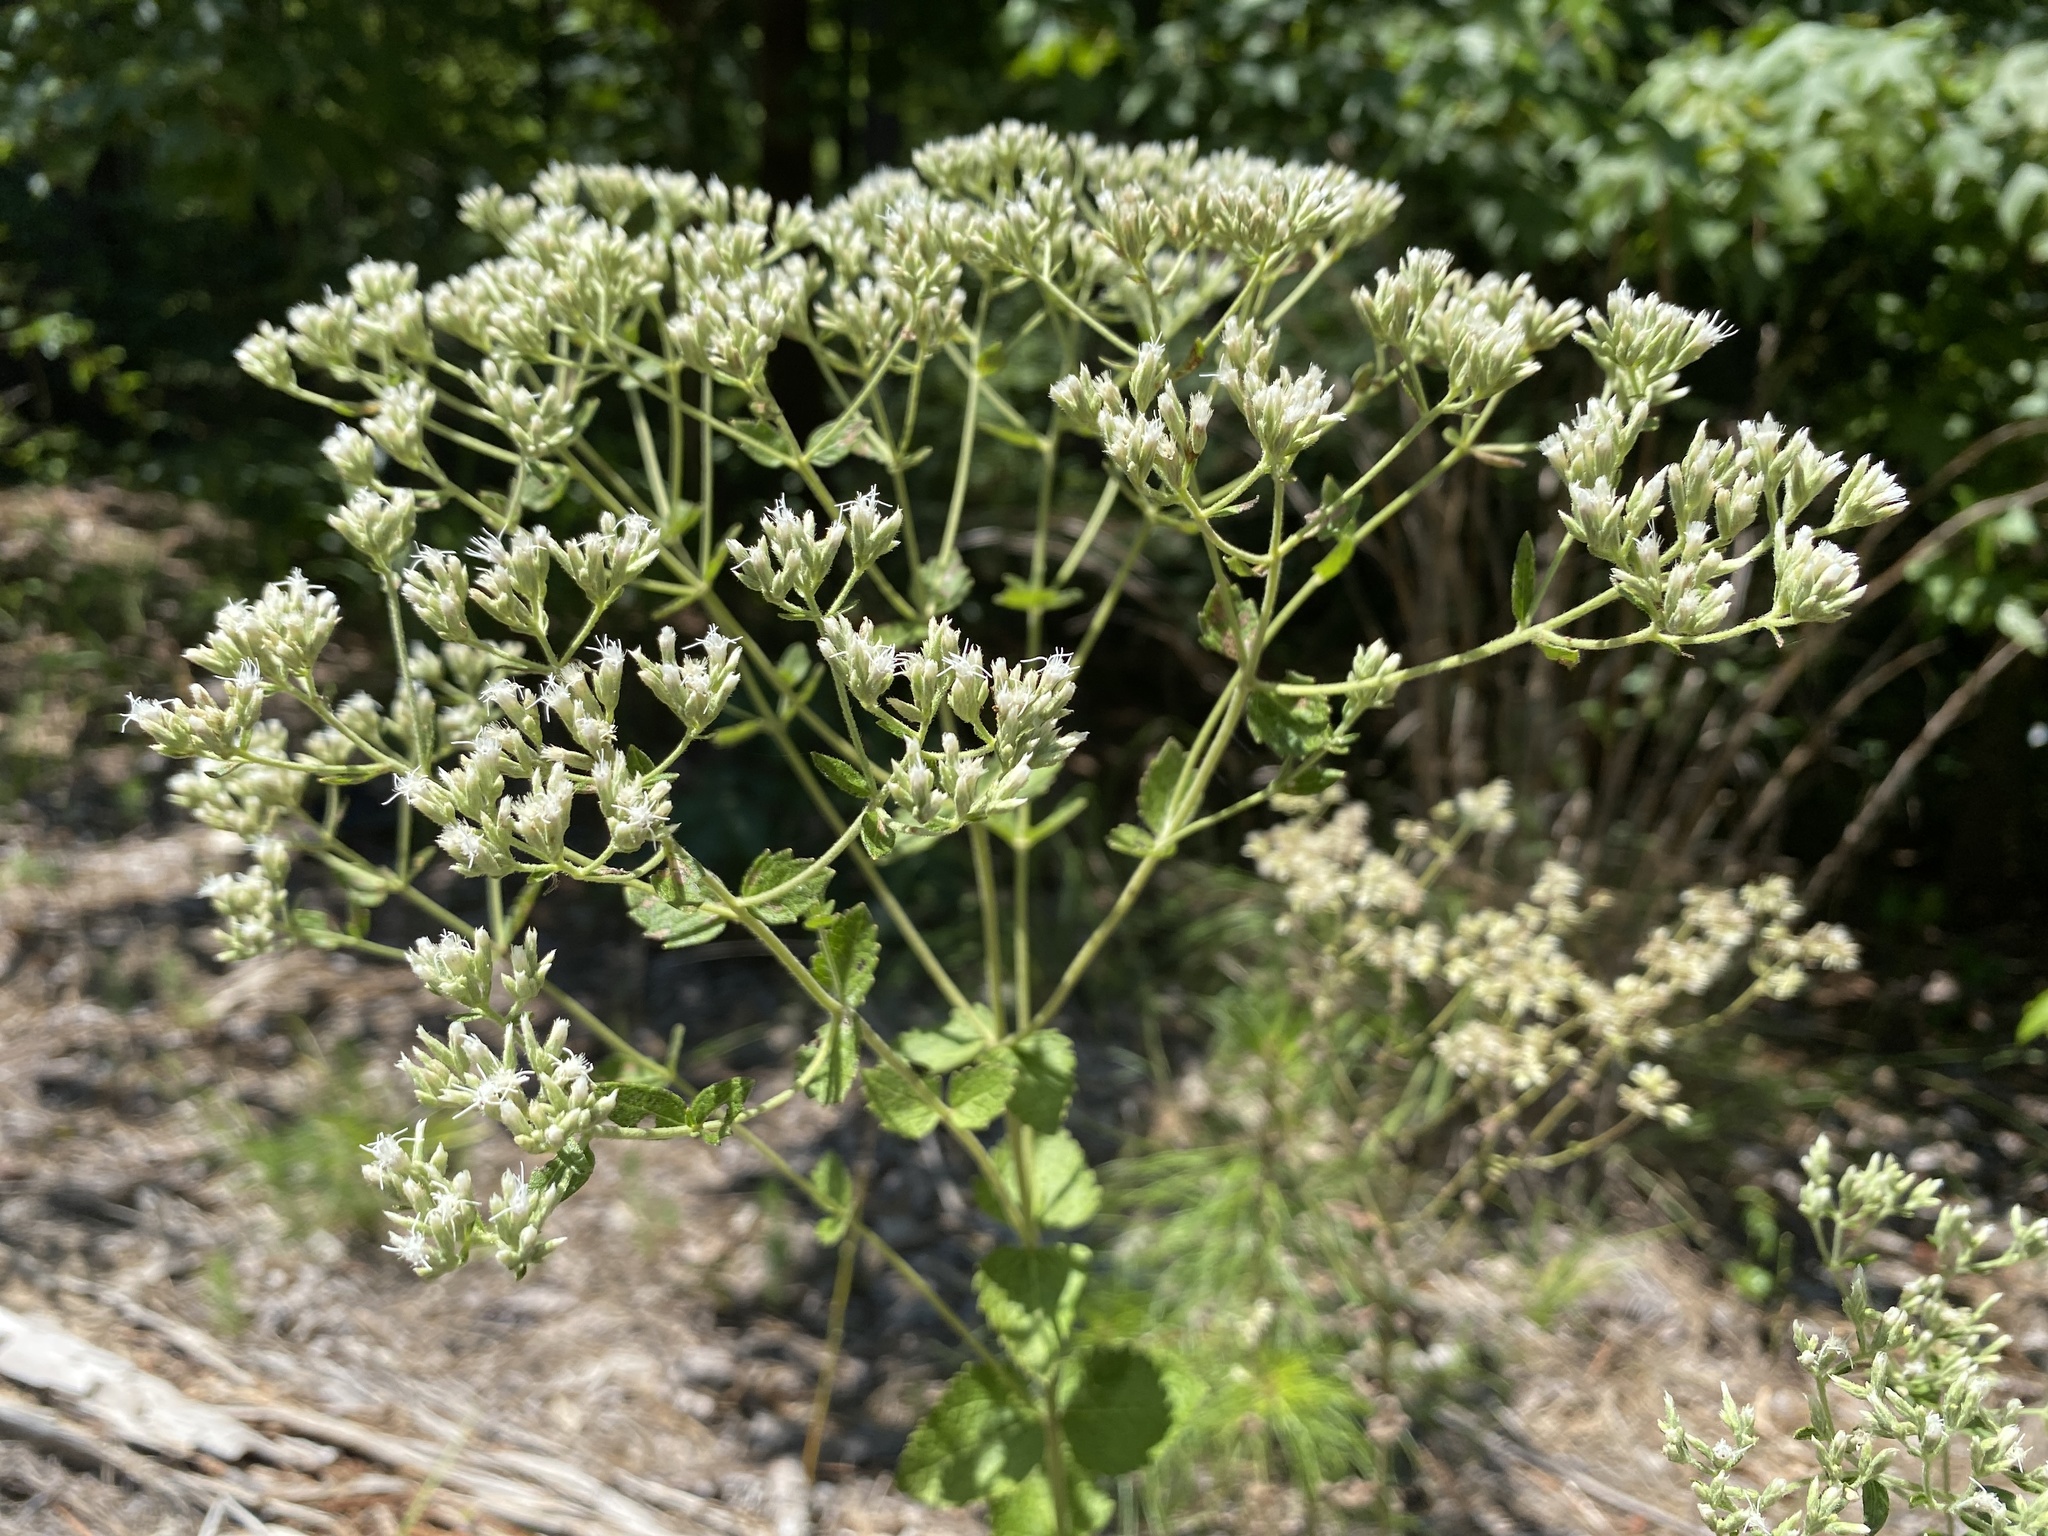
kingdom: Plantae
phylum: Tracheophyta
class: Magnoliopsida
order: Asterales
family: Asteraceae
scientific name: Asteraceae
